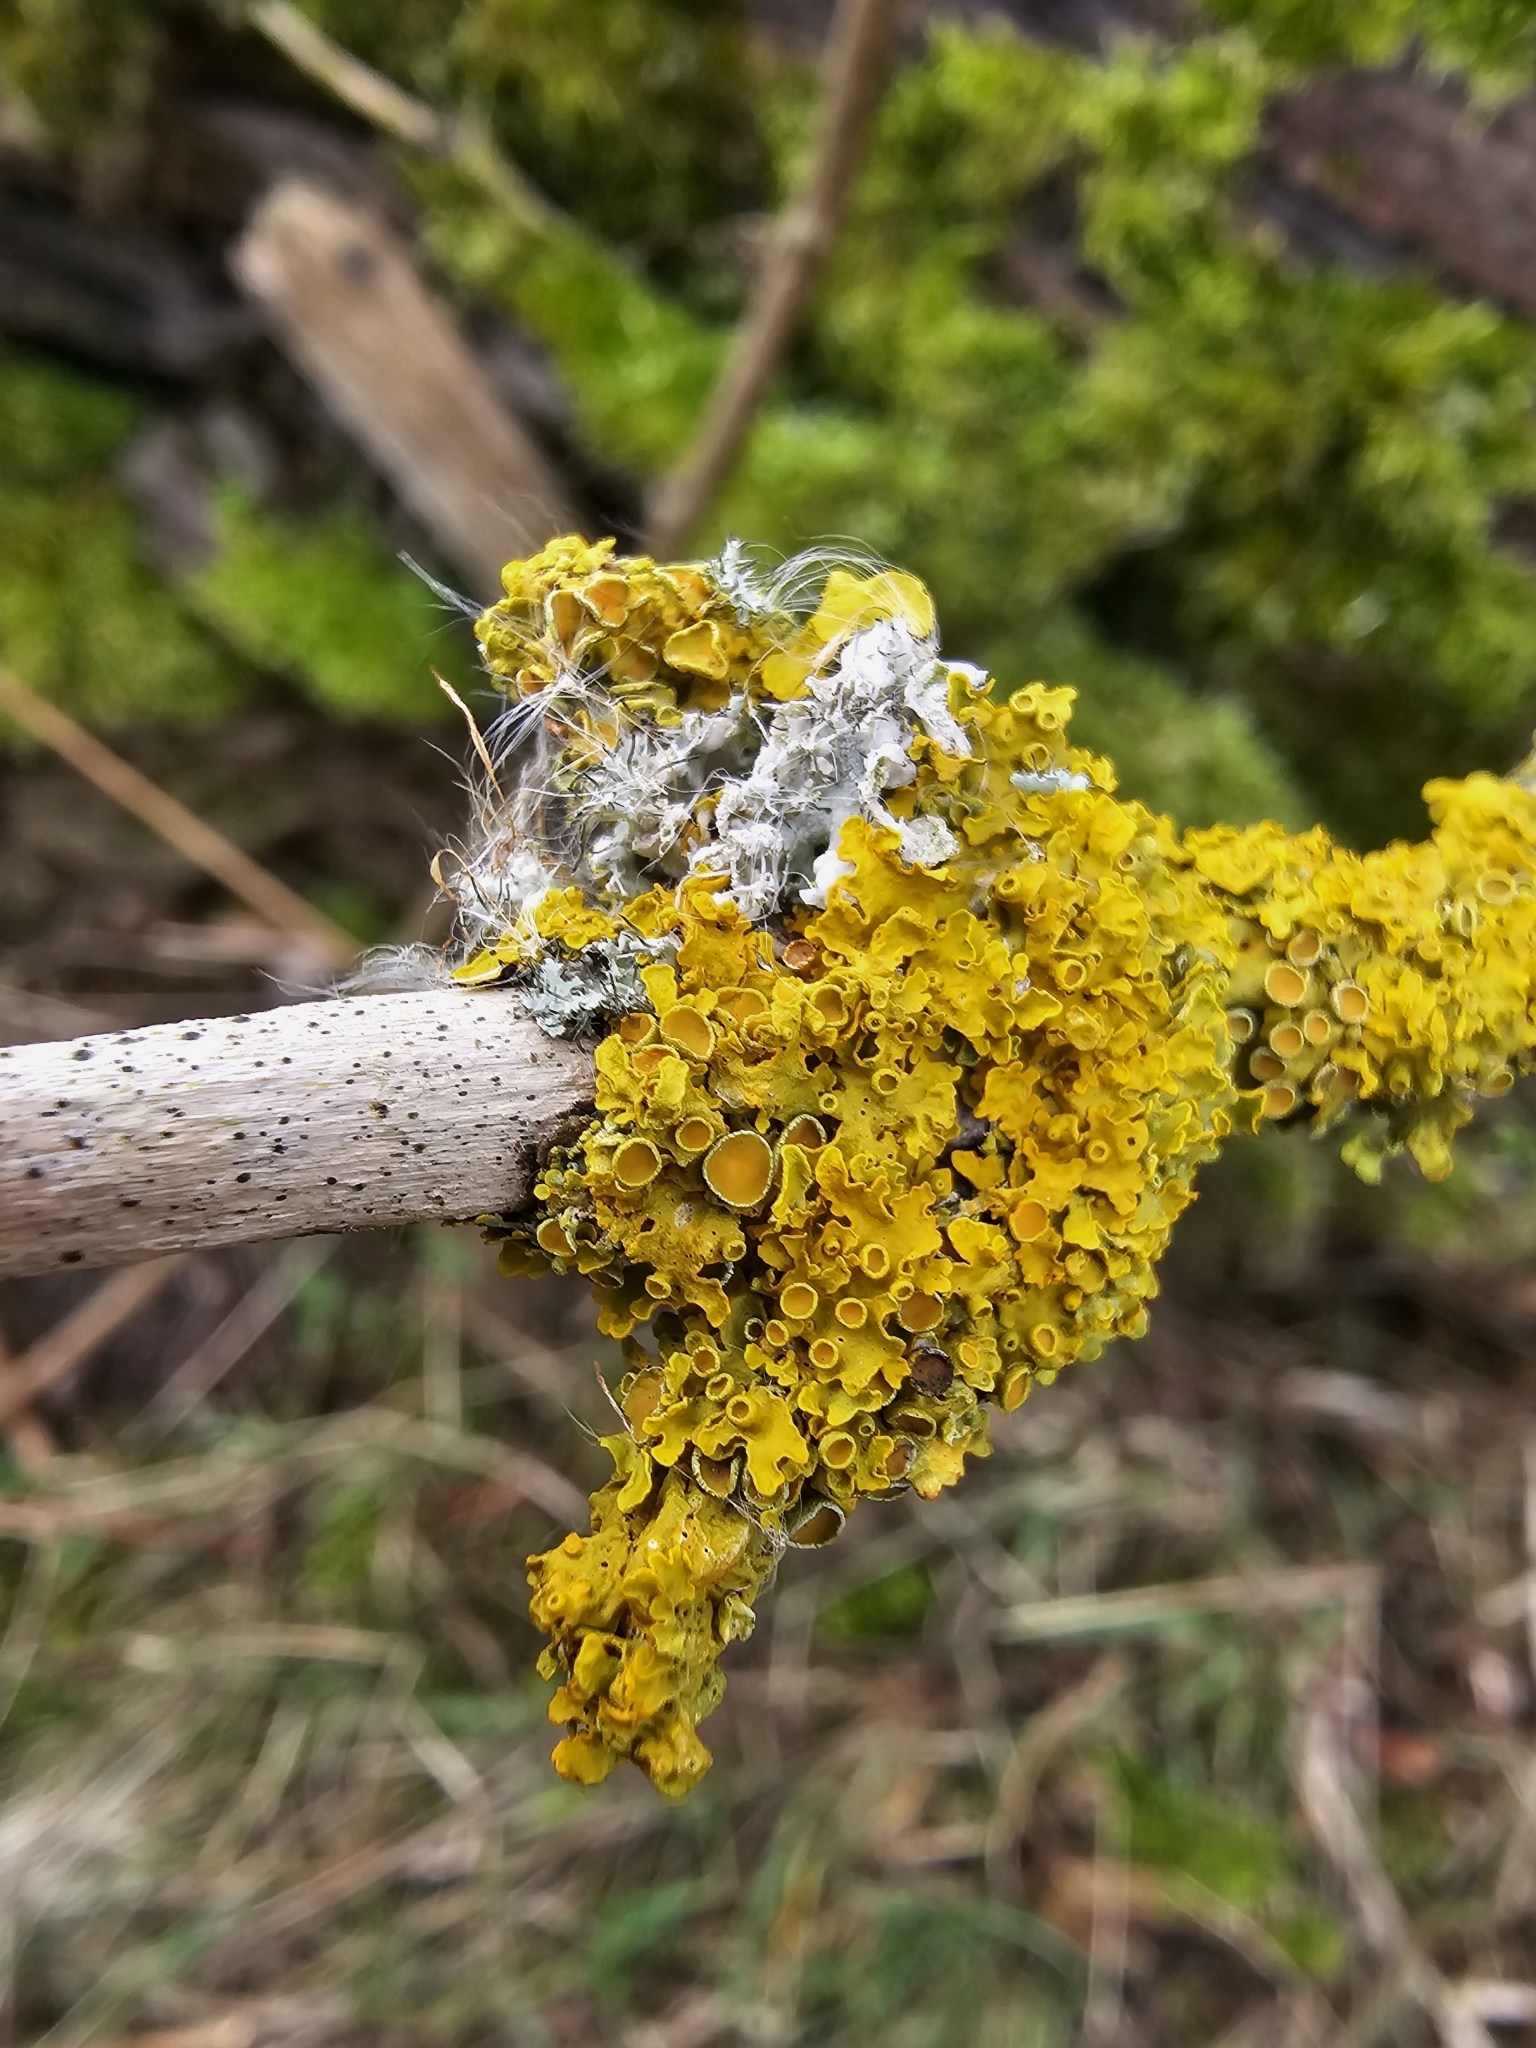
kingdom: Fungi
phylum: Ascomycota
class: Lecanoromycetes
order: Teloschistales
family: Teloschistaceae
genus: Xanthoria
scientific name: Xanthoria parietina
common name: Common orange lichen
